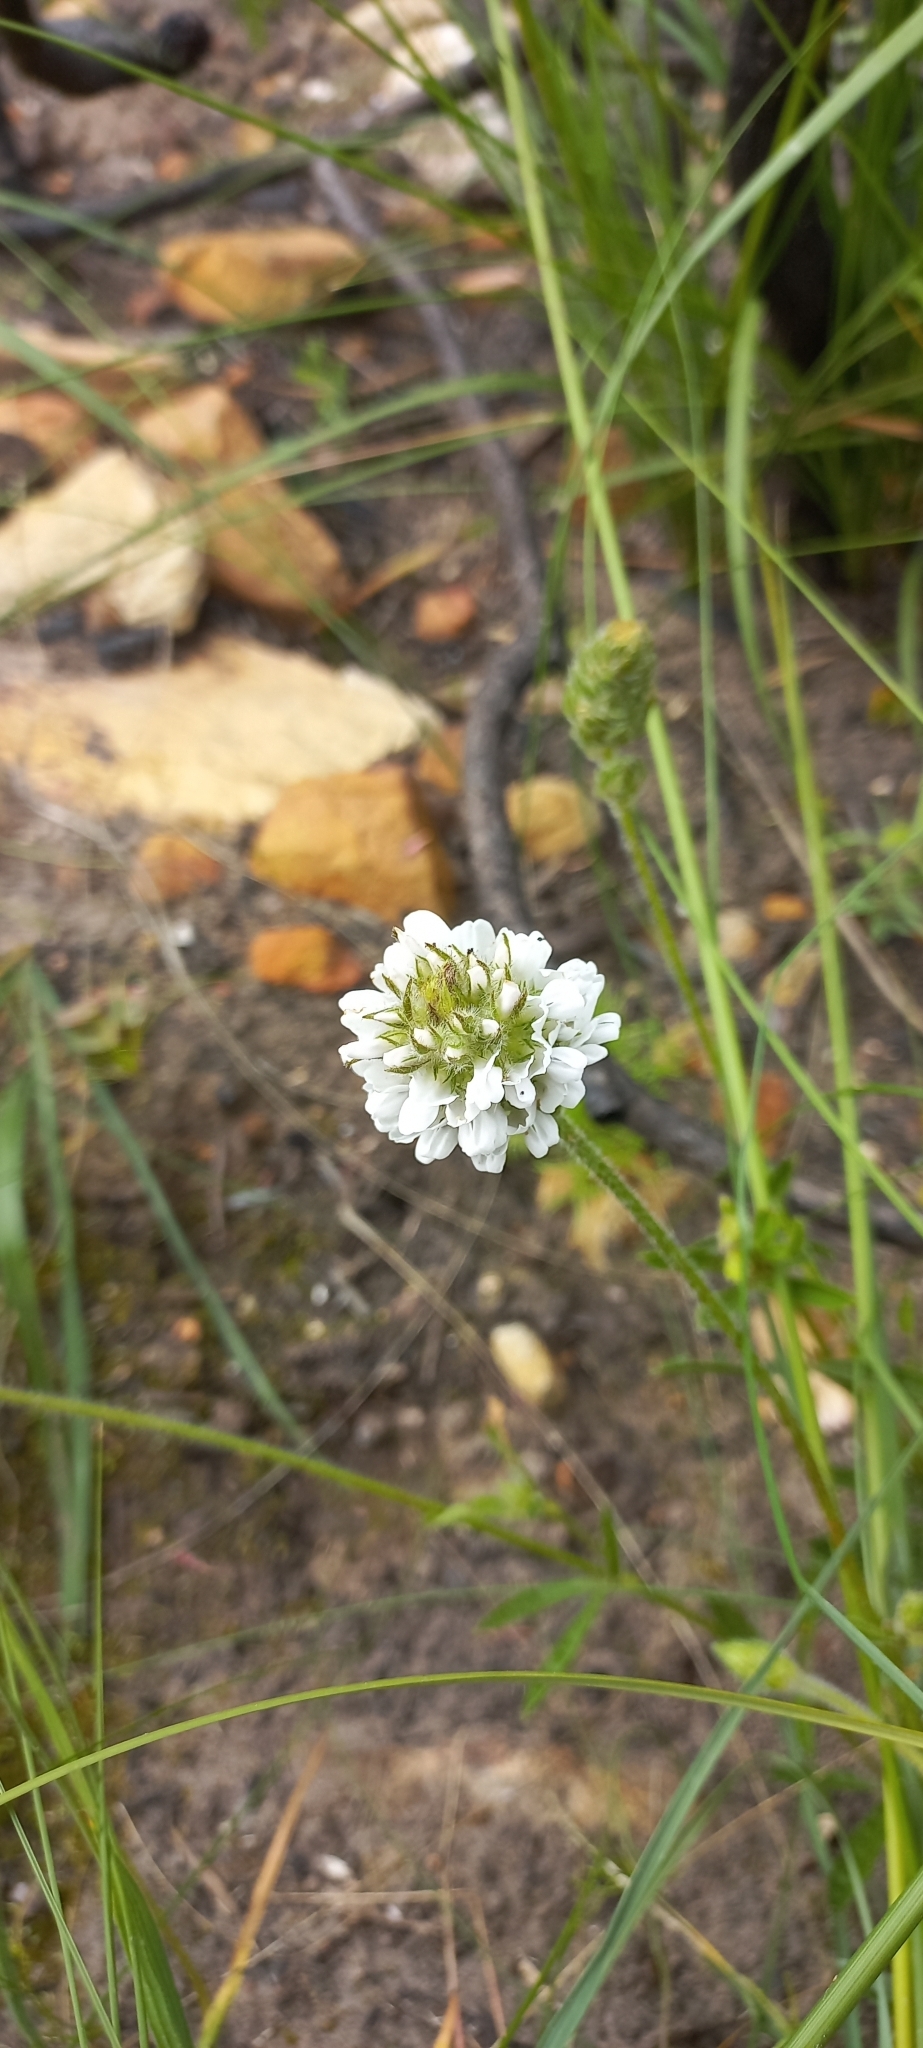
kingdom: Plantae
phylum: Tracheophyta
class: Magnoliopsida
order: Fabales
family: Fabaceae
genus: Psoralea
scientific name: Psoralea zeyheri
